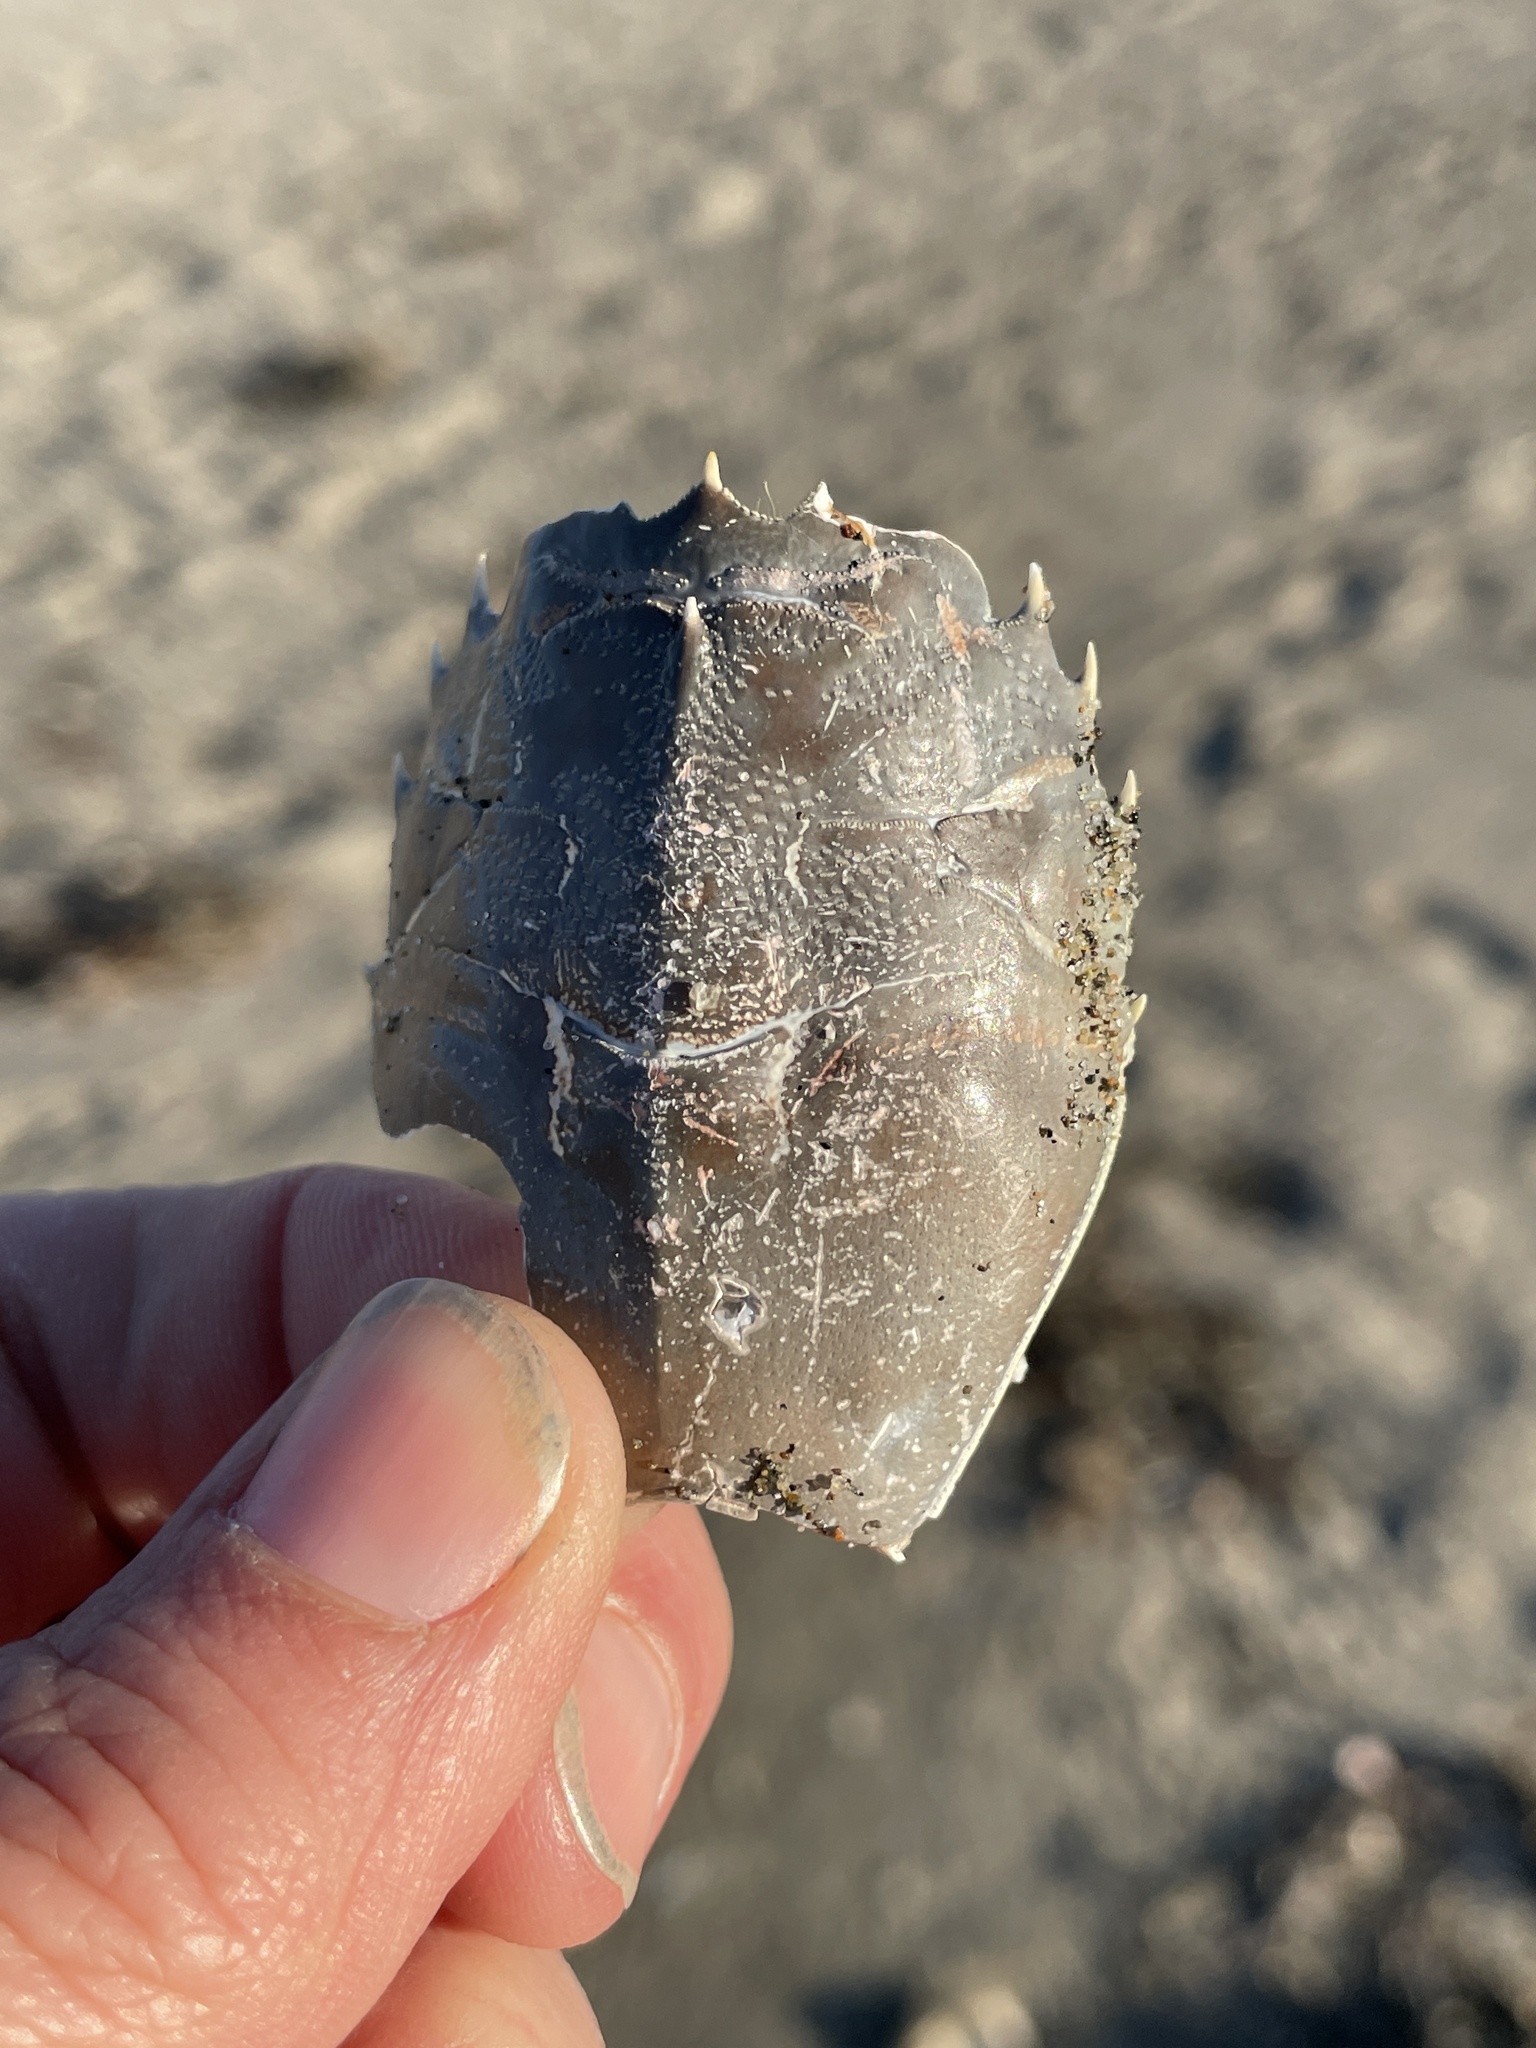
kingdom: Animalia
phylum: Arthropoda
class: Malacostraca
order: Decapoda
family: Blepharipodidae
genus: Blepharipoda
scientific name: Blepharipoda occidentalis
